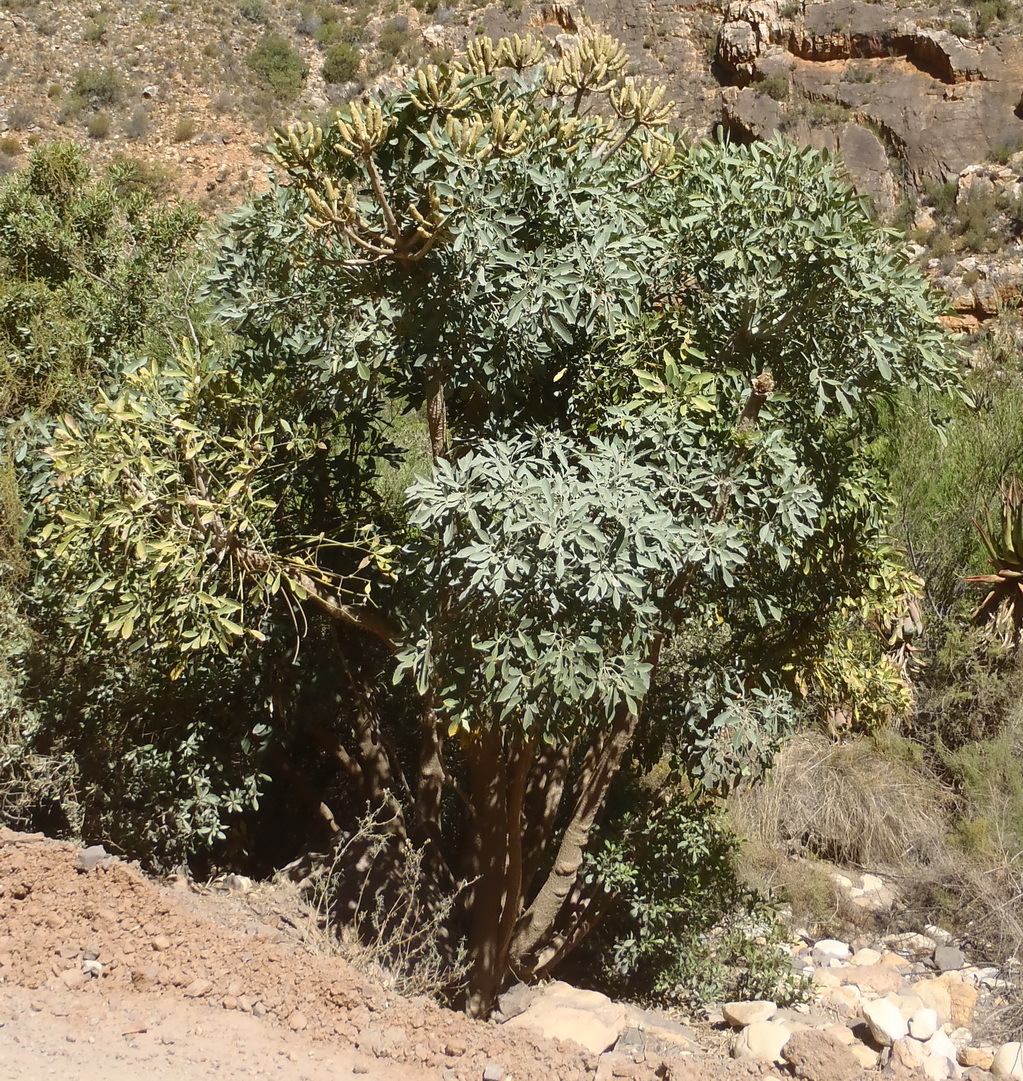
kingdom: Plantae
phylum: Tracheophyta
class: Magnoliopsida
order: Apiales
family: Araliaceae
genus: Cussonia
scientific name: Cussonia spicata
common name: Common cabbagetree
